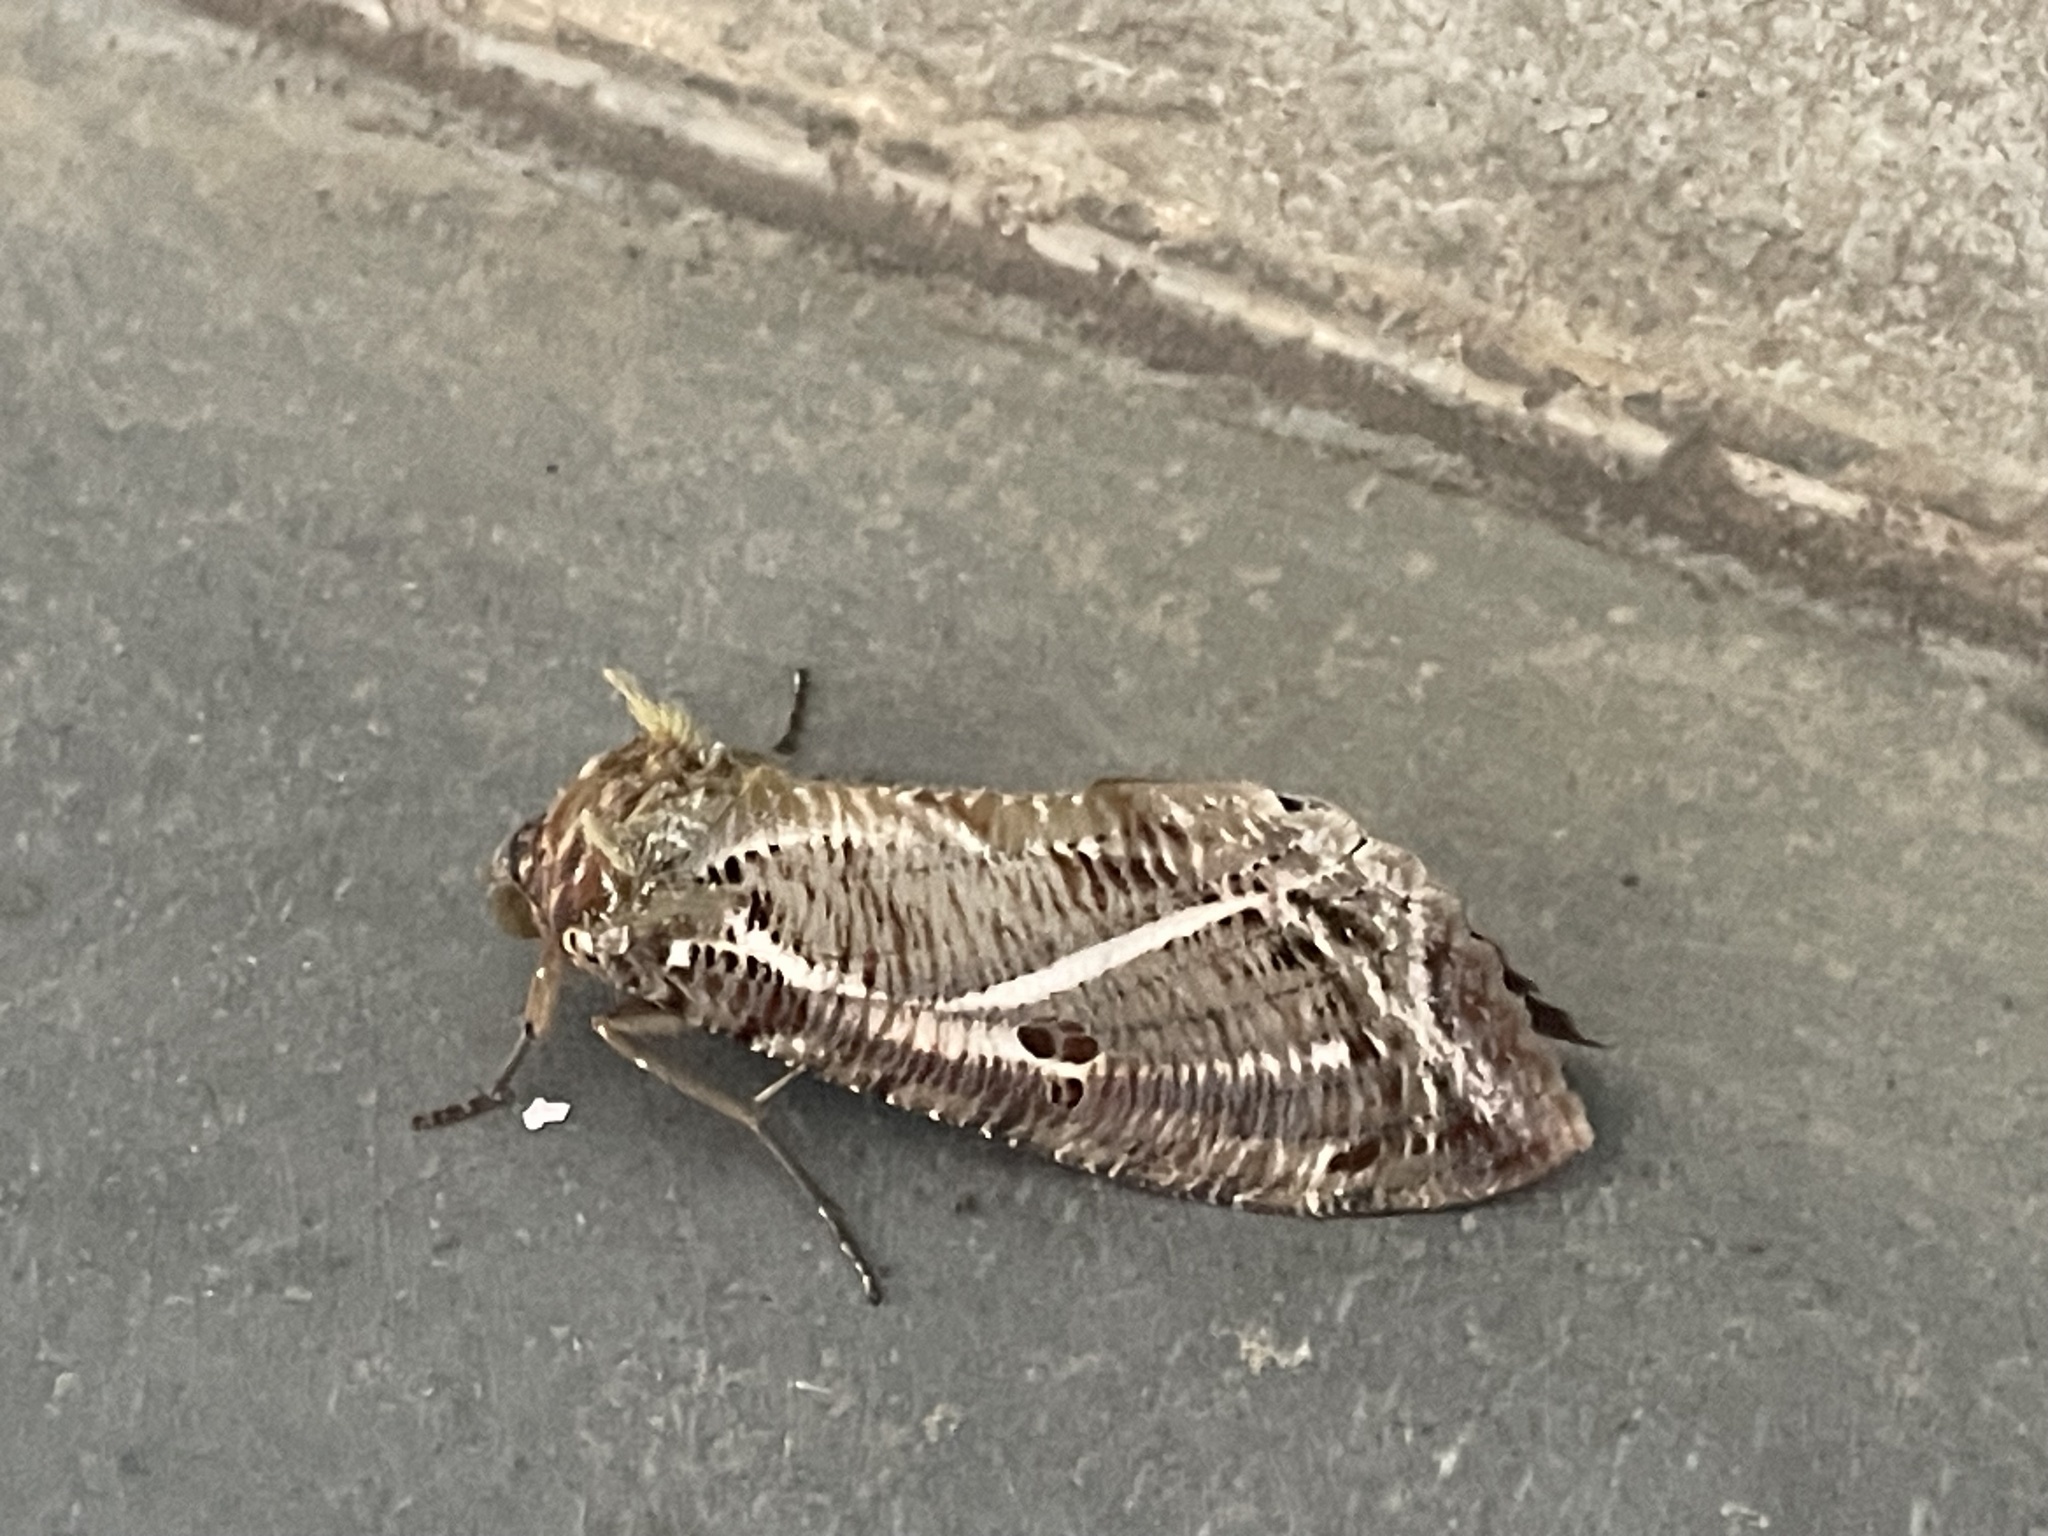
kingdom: Animalia
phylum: Arthropoda
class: Insecta
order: Lepidoptera
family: Erebidae
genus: Eudocima
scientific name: Eudocima materna
